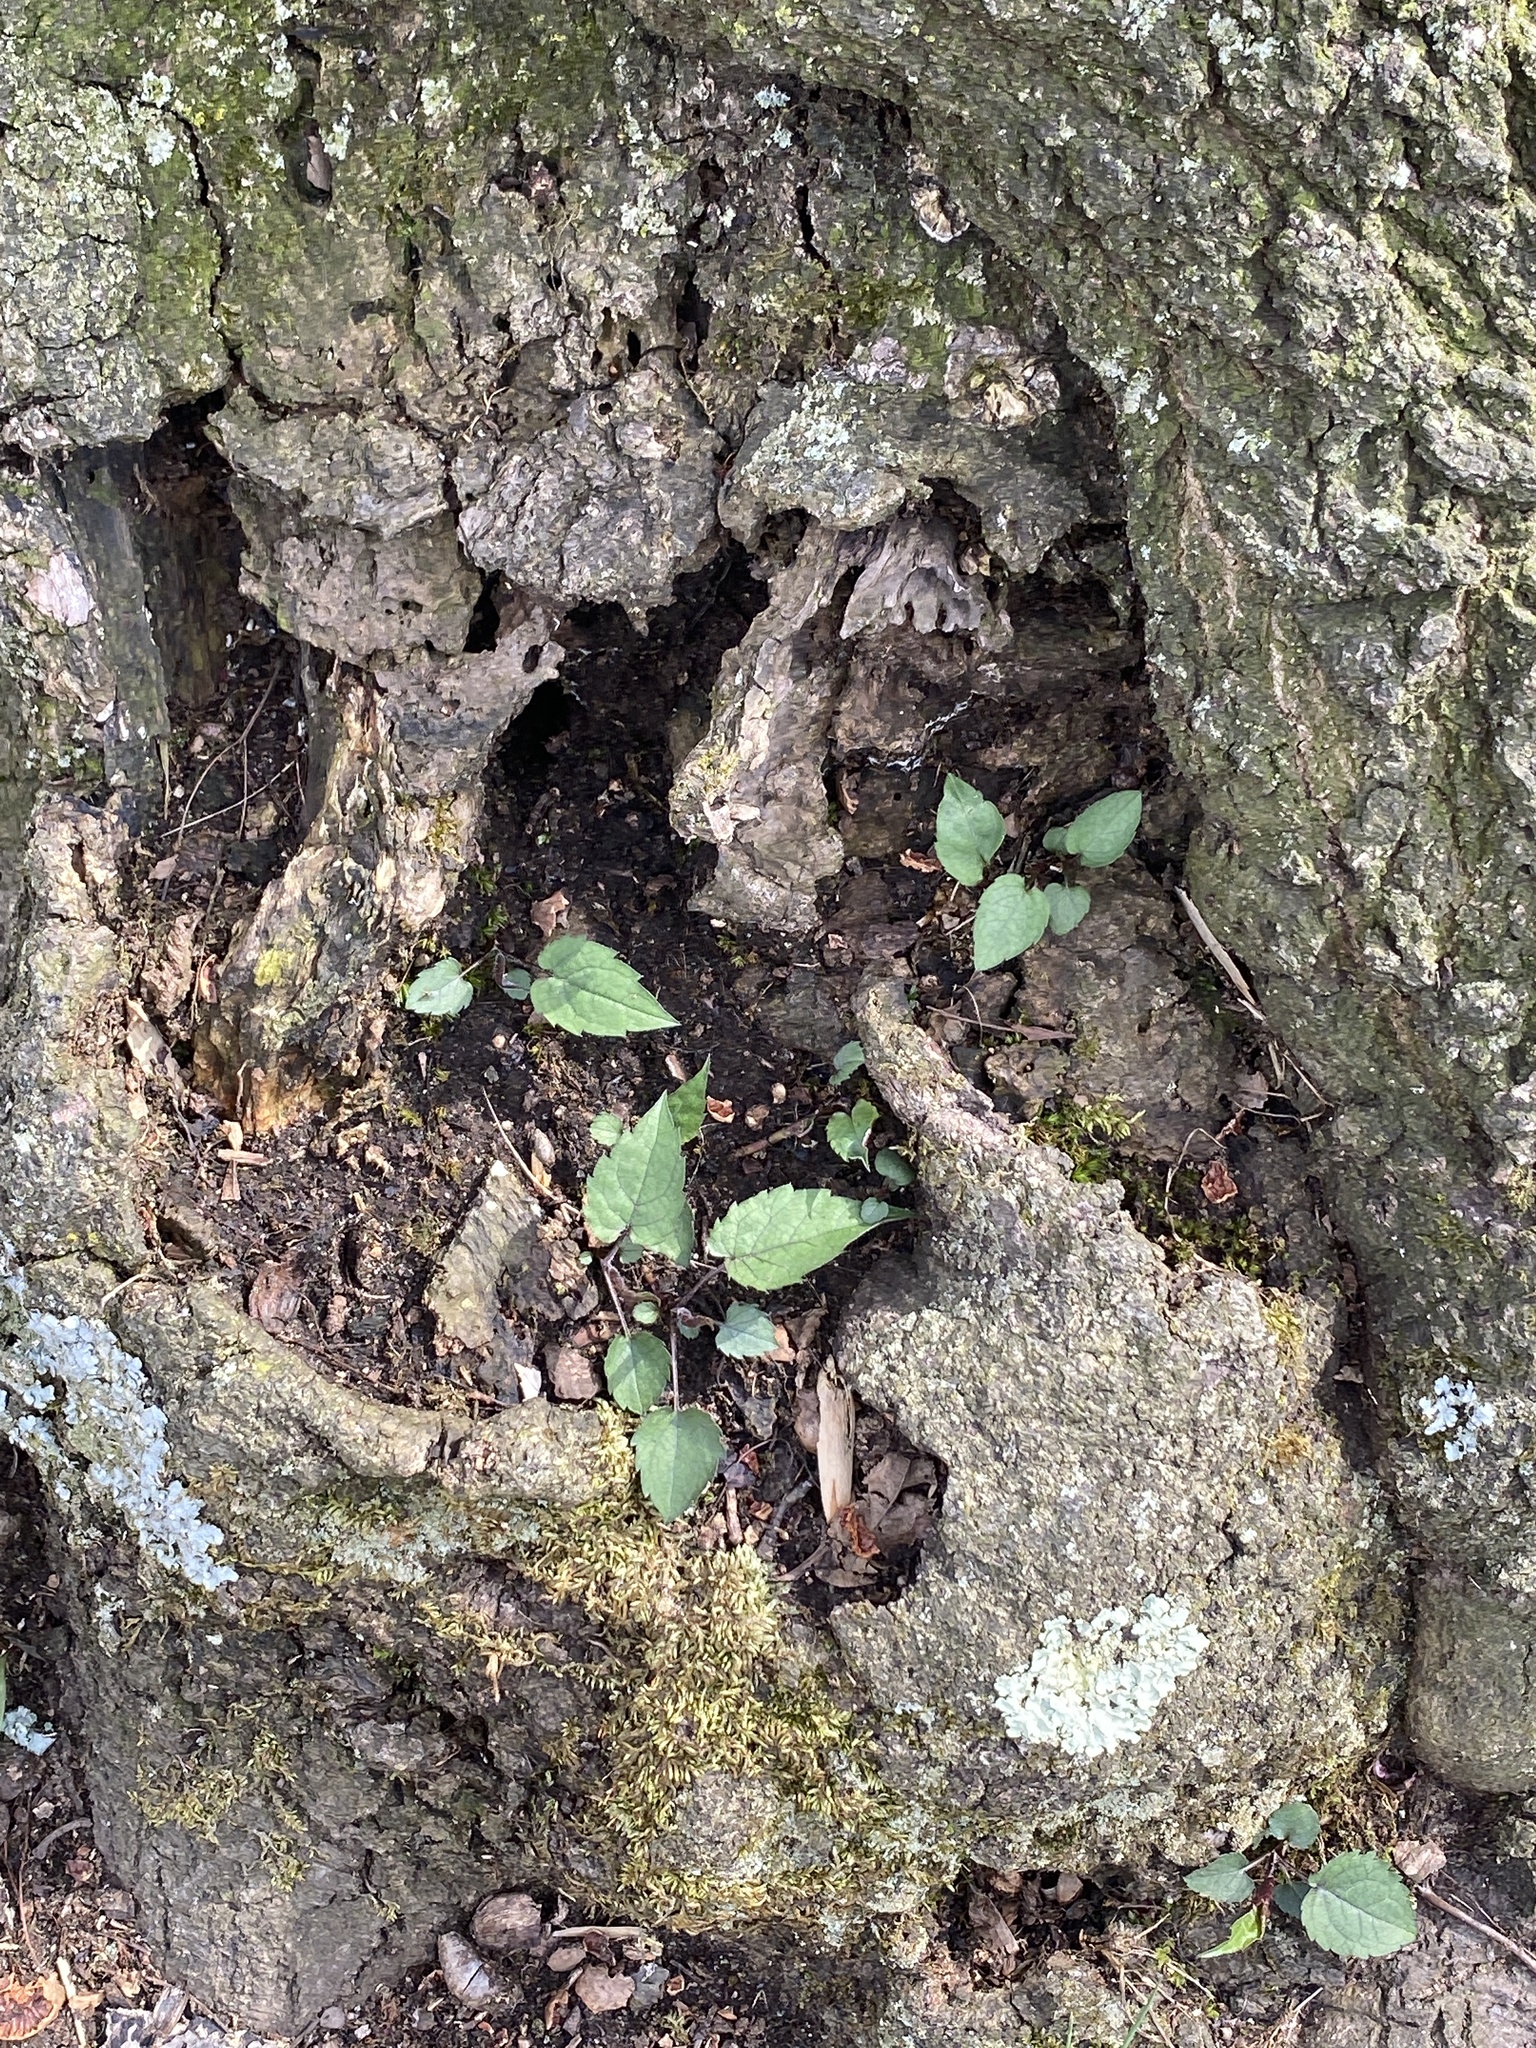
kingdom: Plantae
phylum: Tracheophyta
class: Magnoliopsida
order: Asterales
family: Asteraceae
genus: Eurybia
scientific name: Eurybia divaricata
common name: White wood aster
